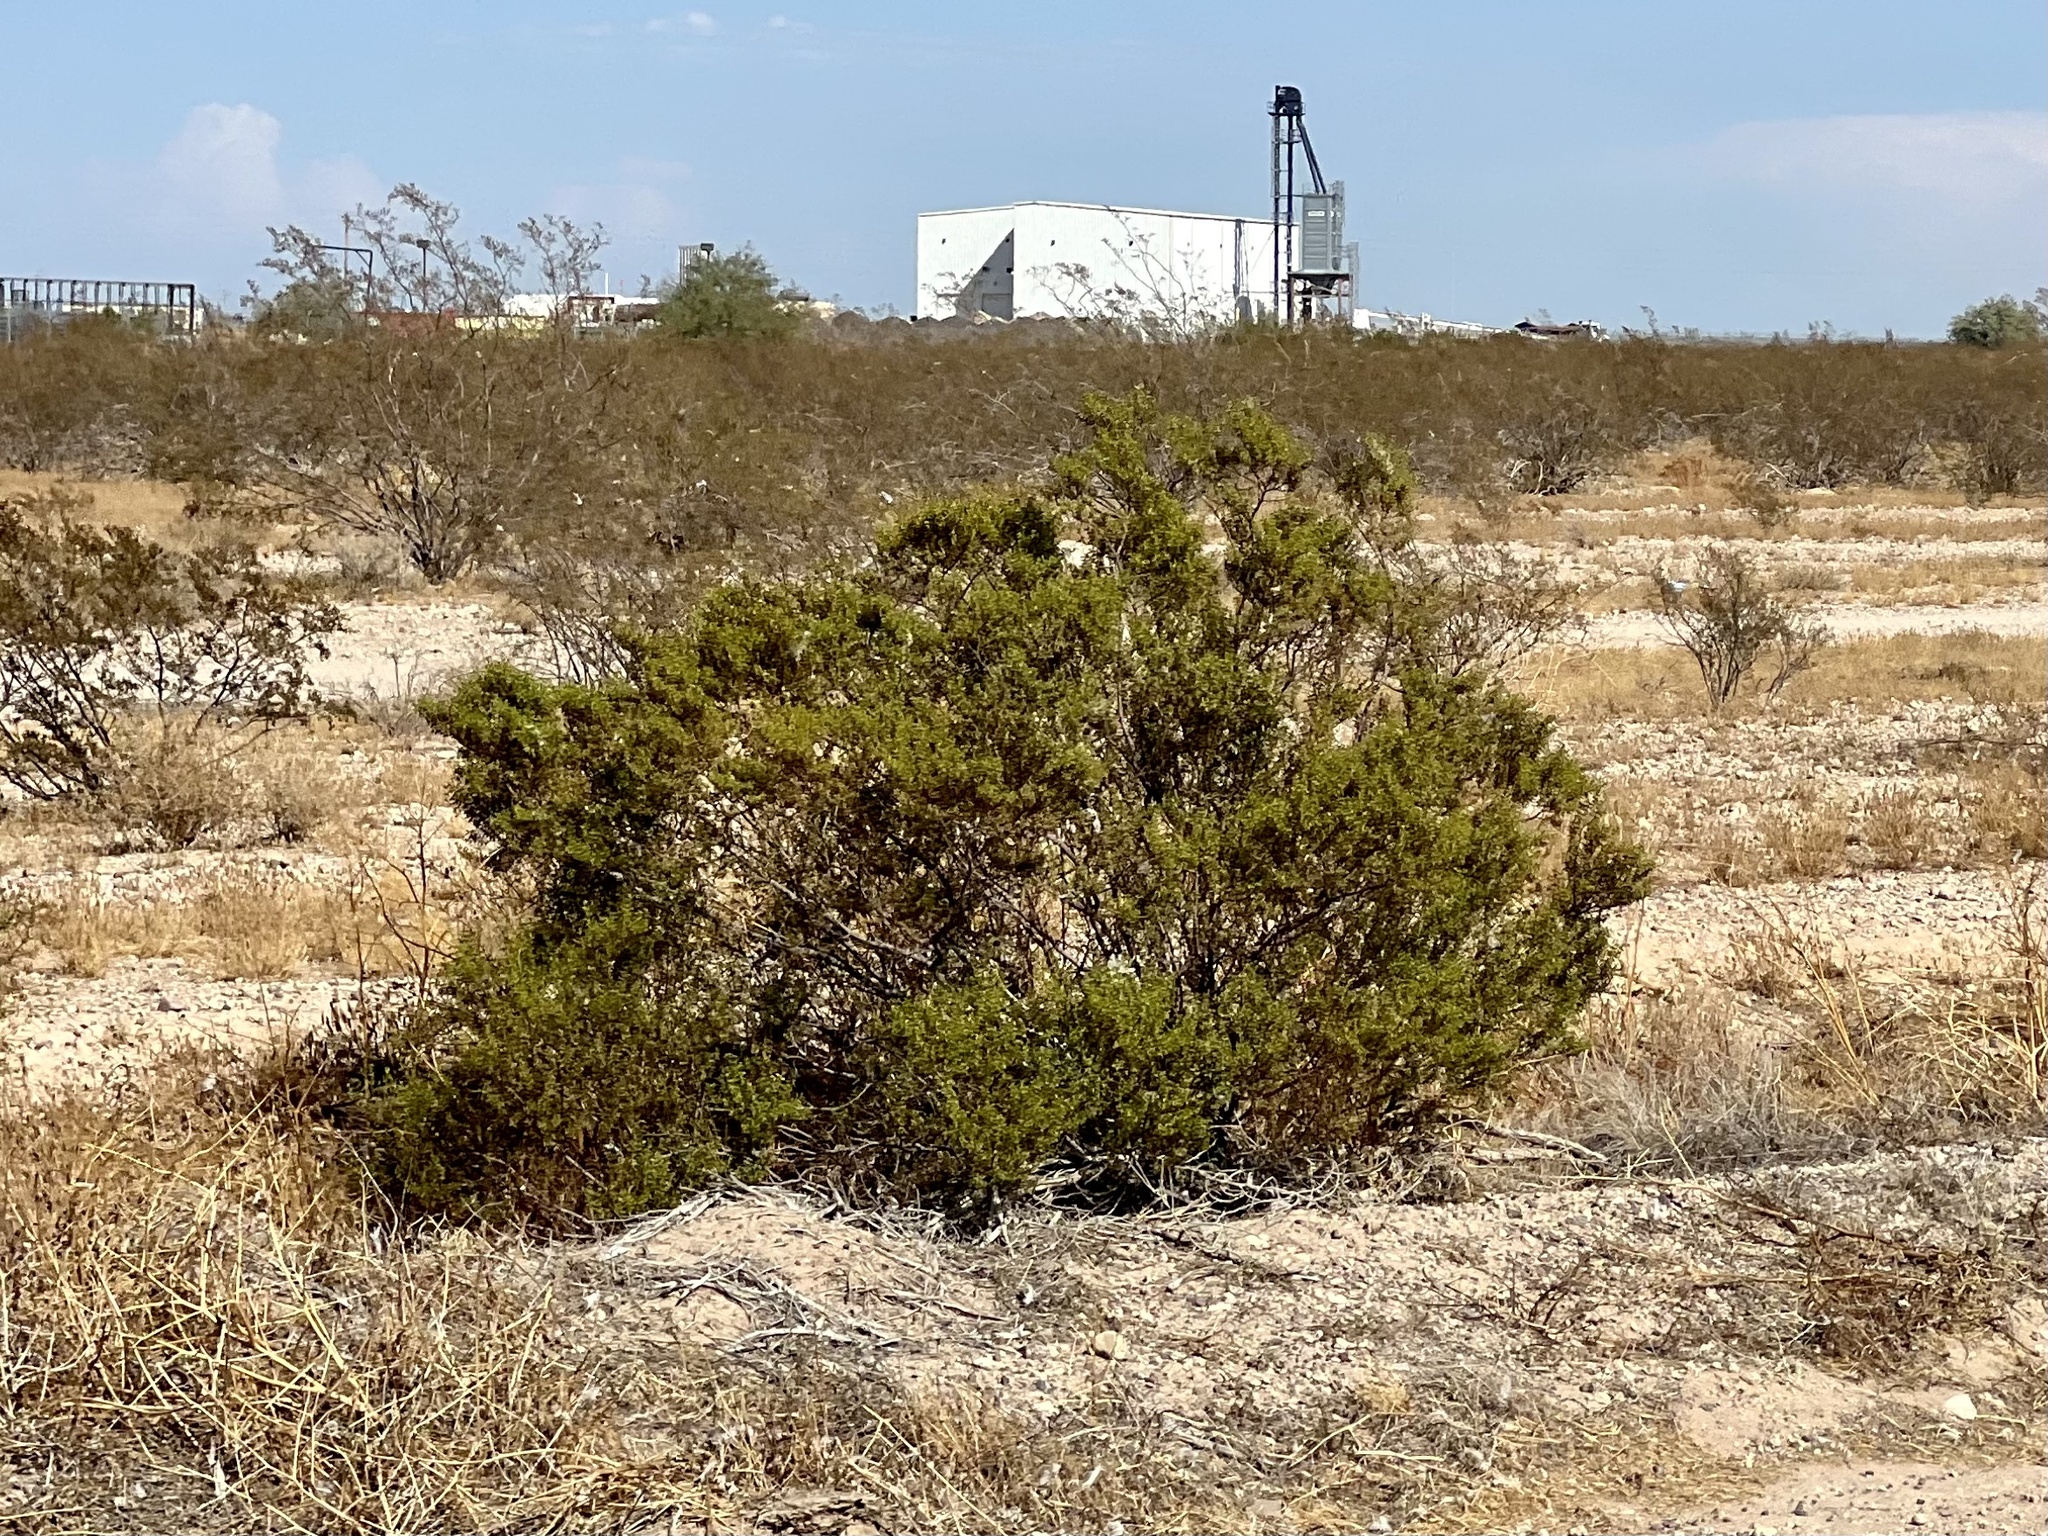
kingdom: Plantae
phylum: Tracheophyta
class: Magnoliopsida
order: Zygophyllales
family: Zygophyllaceae
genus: Larrea
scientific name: Larrea tridentata
